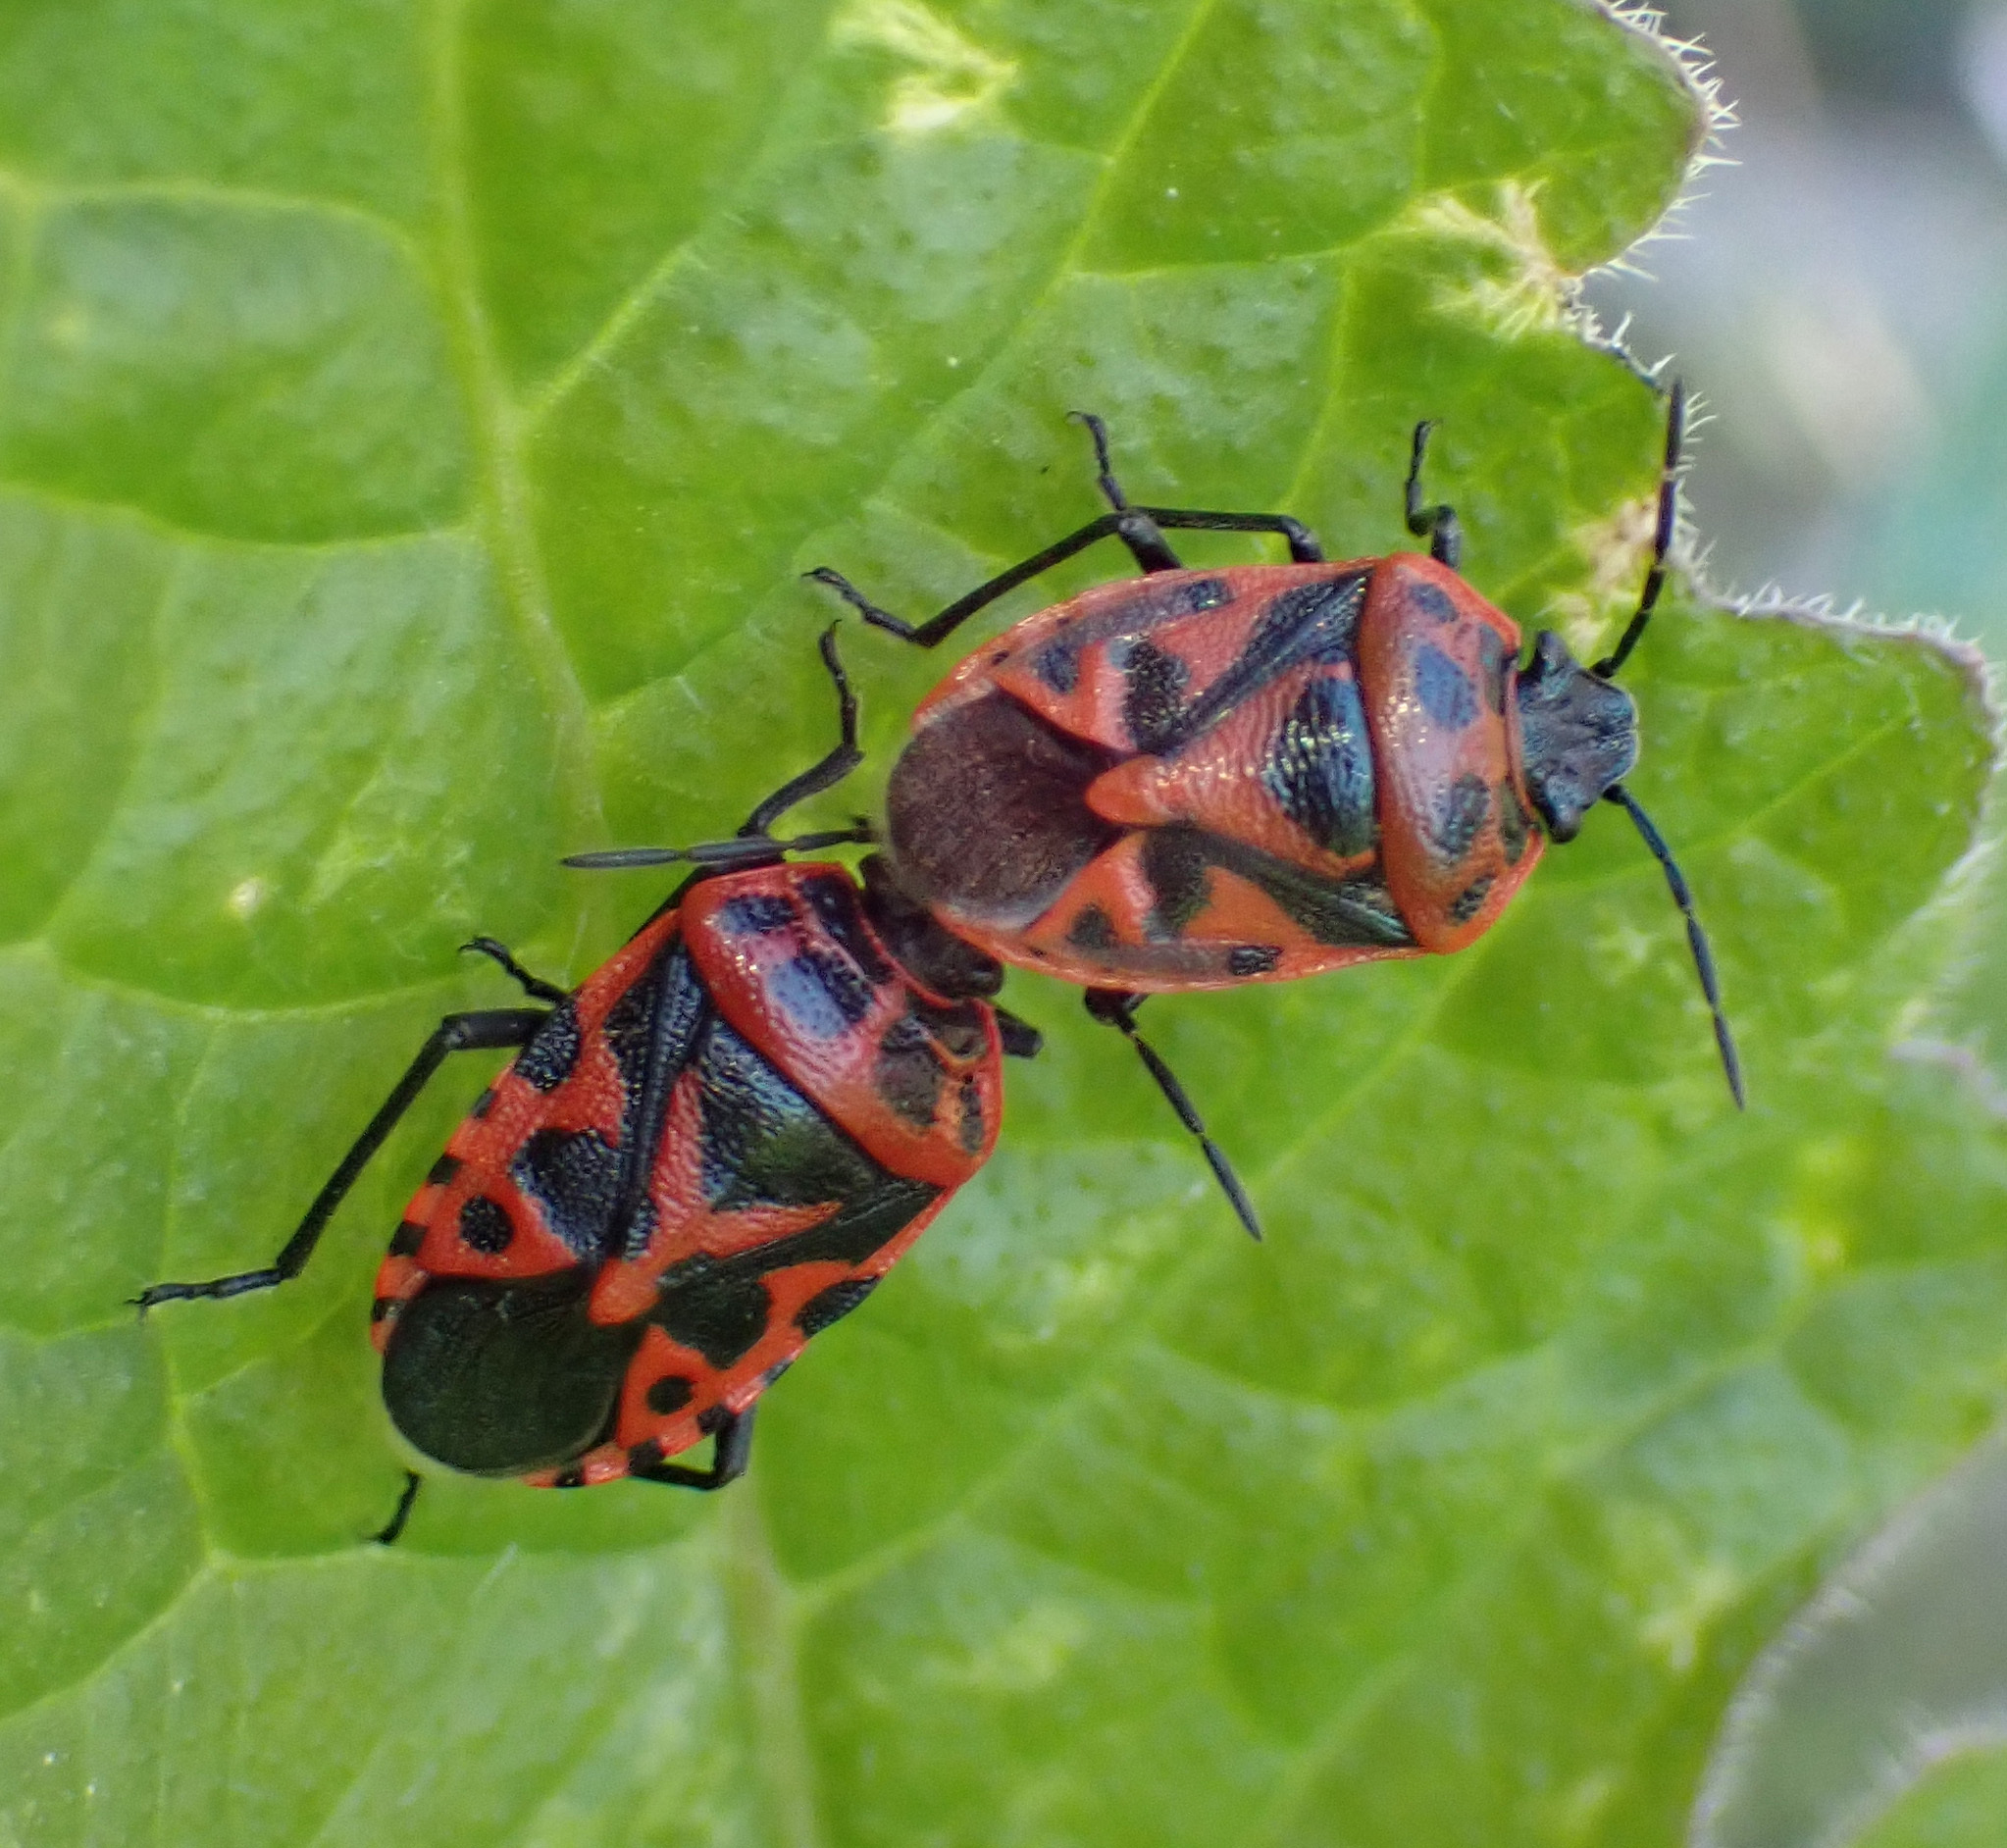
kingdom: Animalia
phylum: Arthropoda
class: Insecta
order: Hemiptera
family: Pentatomidae
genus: Eurydema
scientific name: Eurydema ventralis
